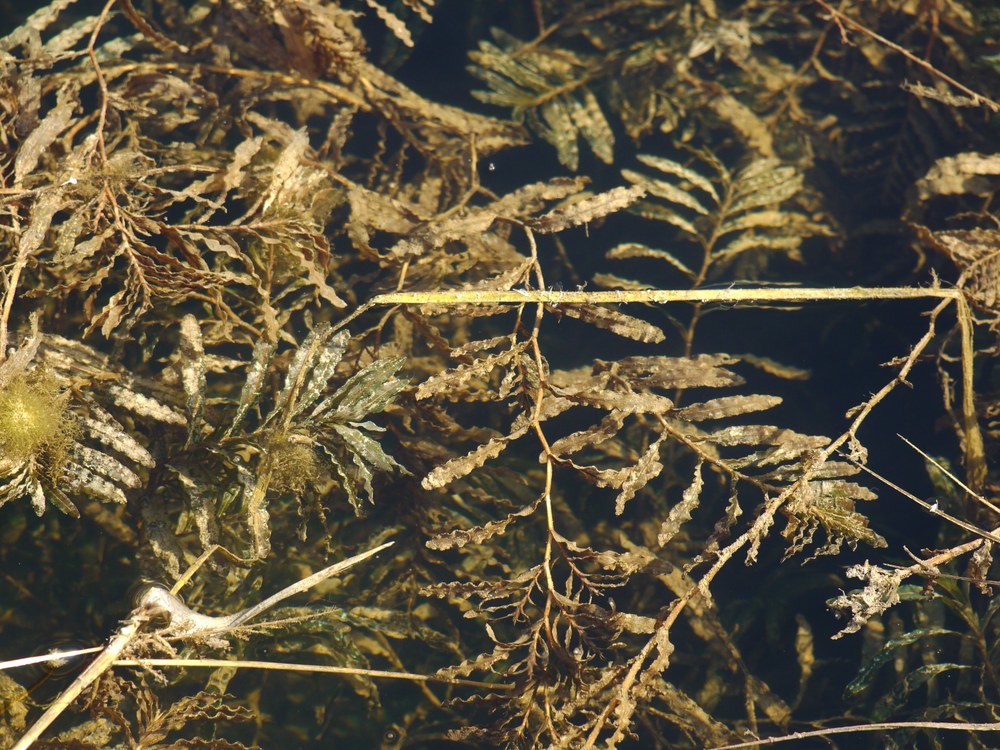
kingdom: Plantae
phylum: Tracheophyta
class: Liliopsida
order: Alismatales
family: Potamogetonaceae
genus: Potamogeton
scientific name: Potamogeton crispus
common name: Curled pondweed
